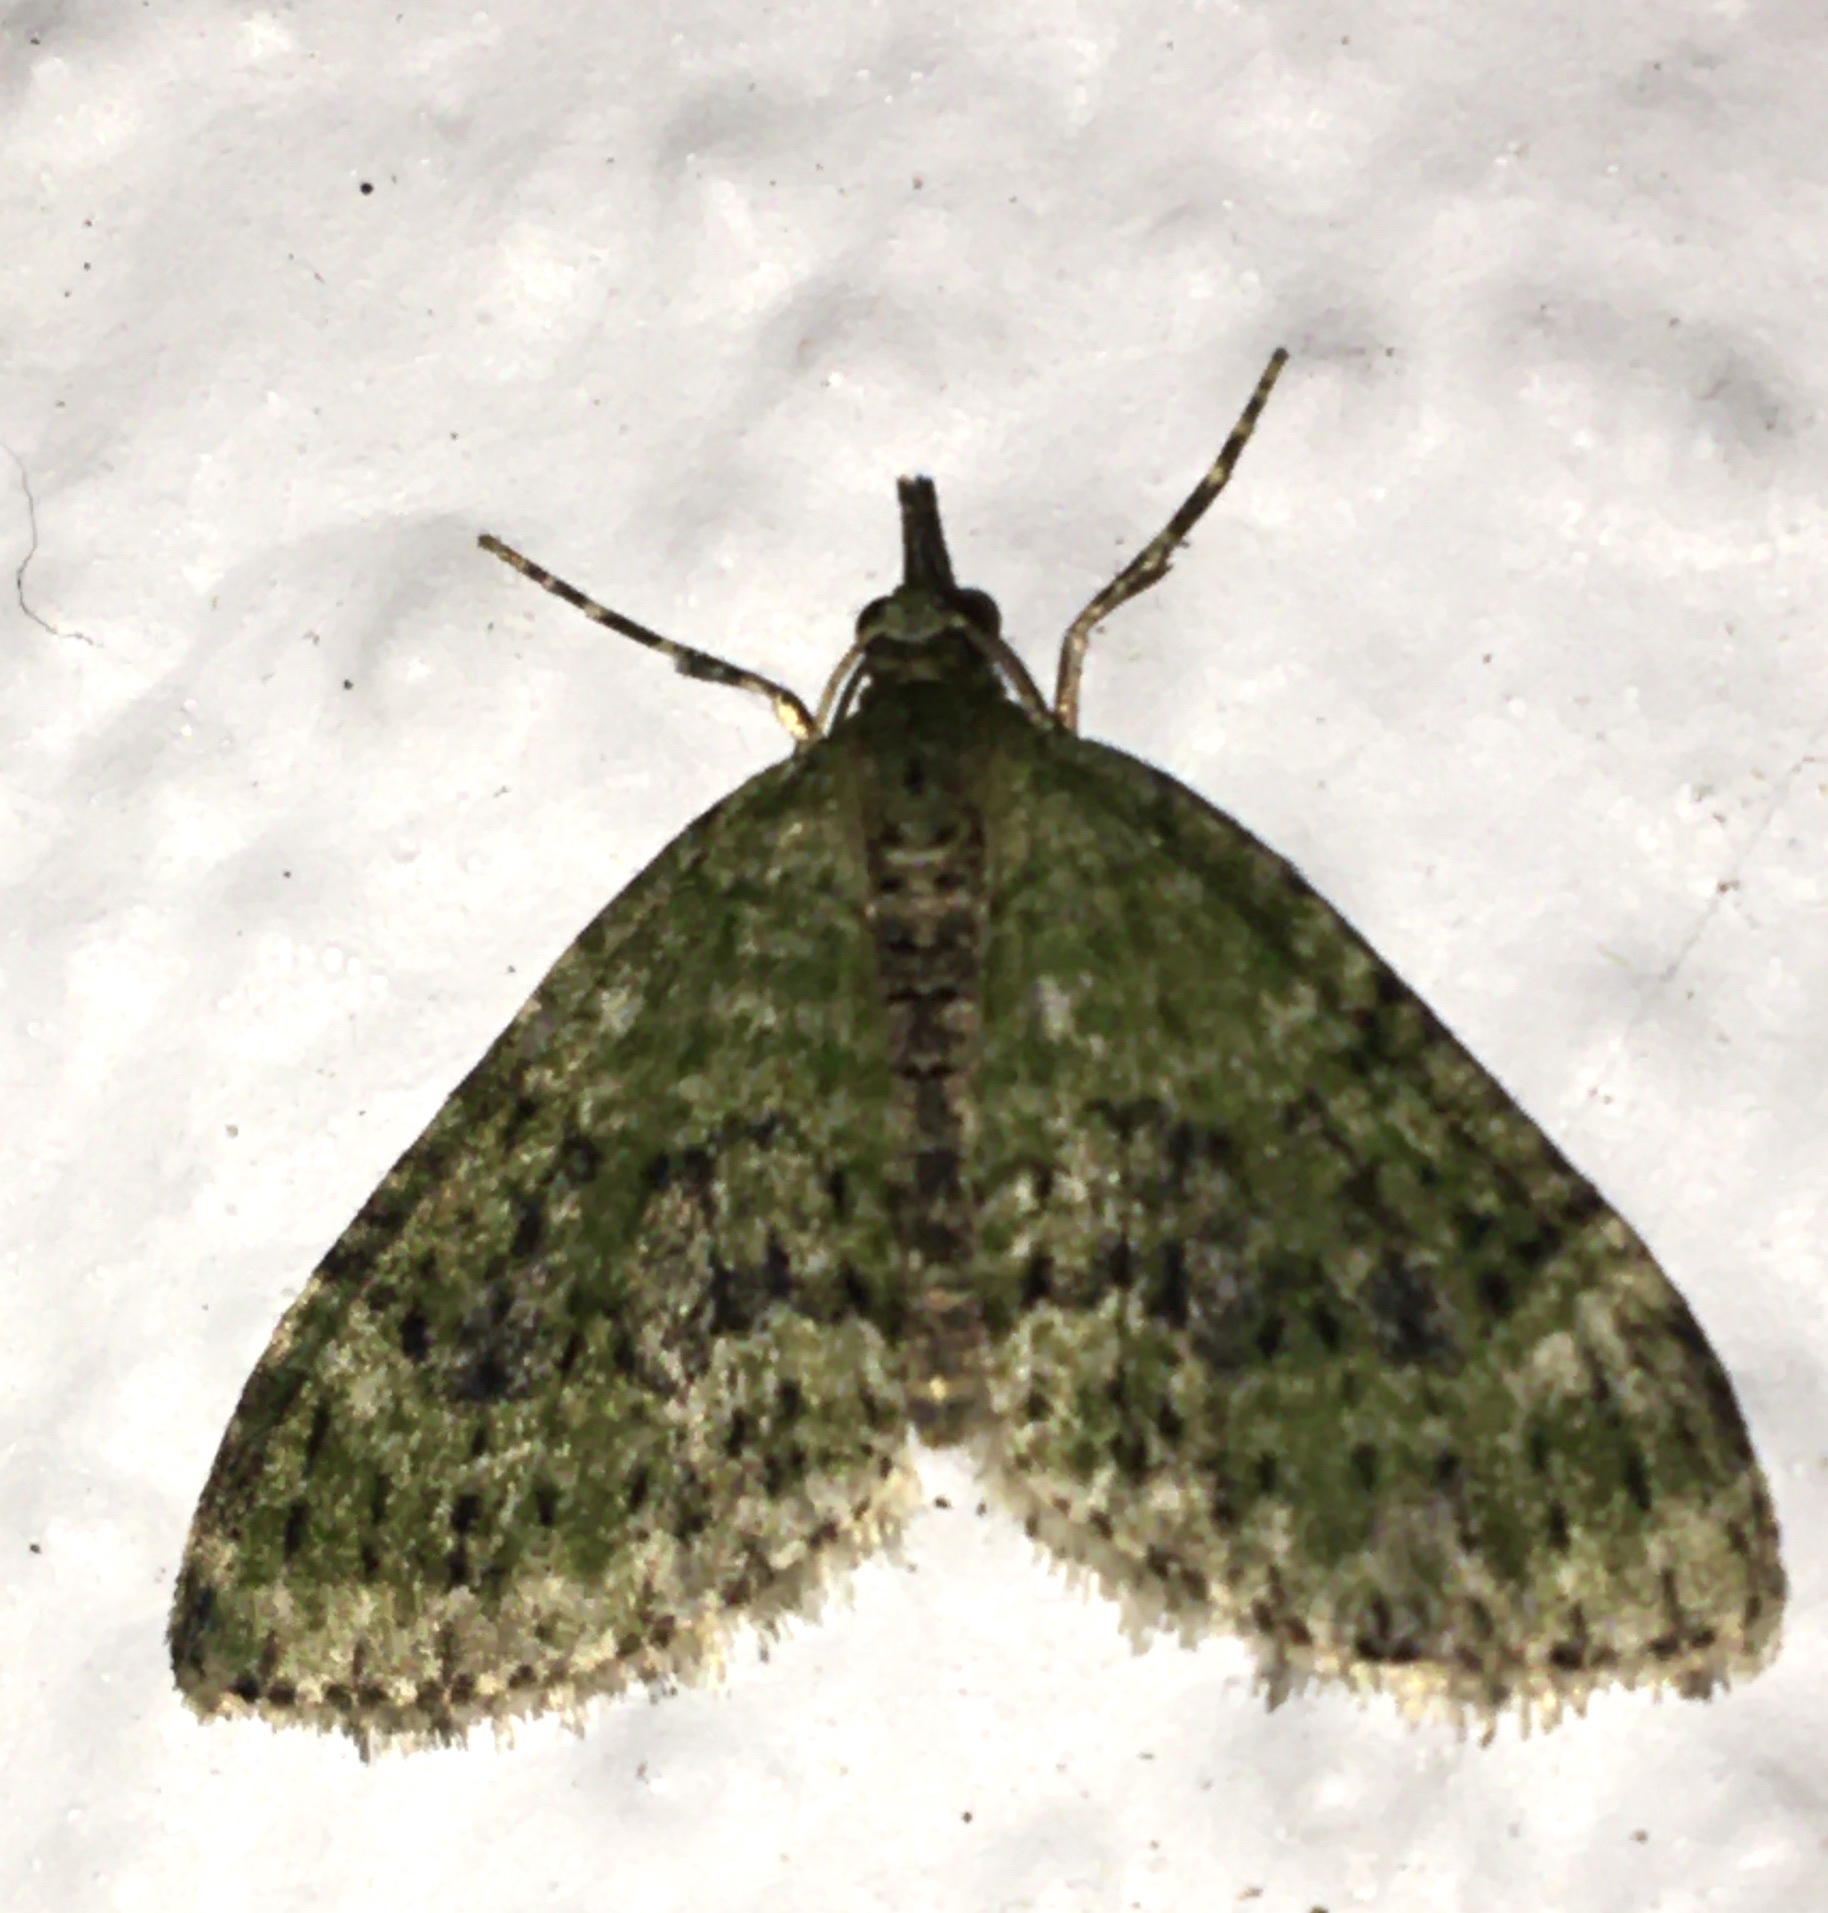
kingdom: Animalia
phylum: Arthropoda
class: Insecta
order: Lepidoptera
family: Geometridae
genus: Acasis
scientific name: Acasis viretata
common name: Yellow-barred brindle
